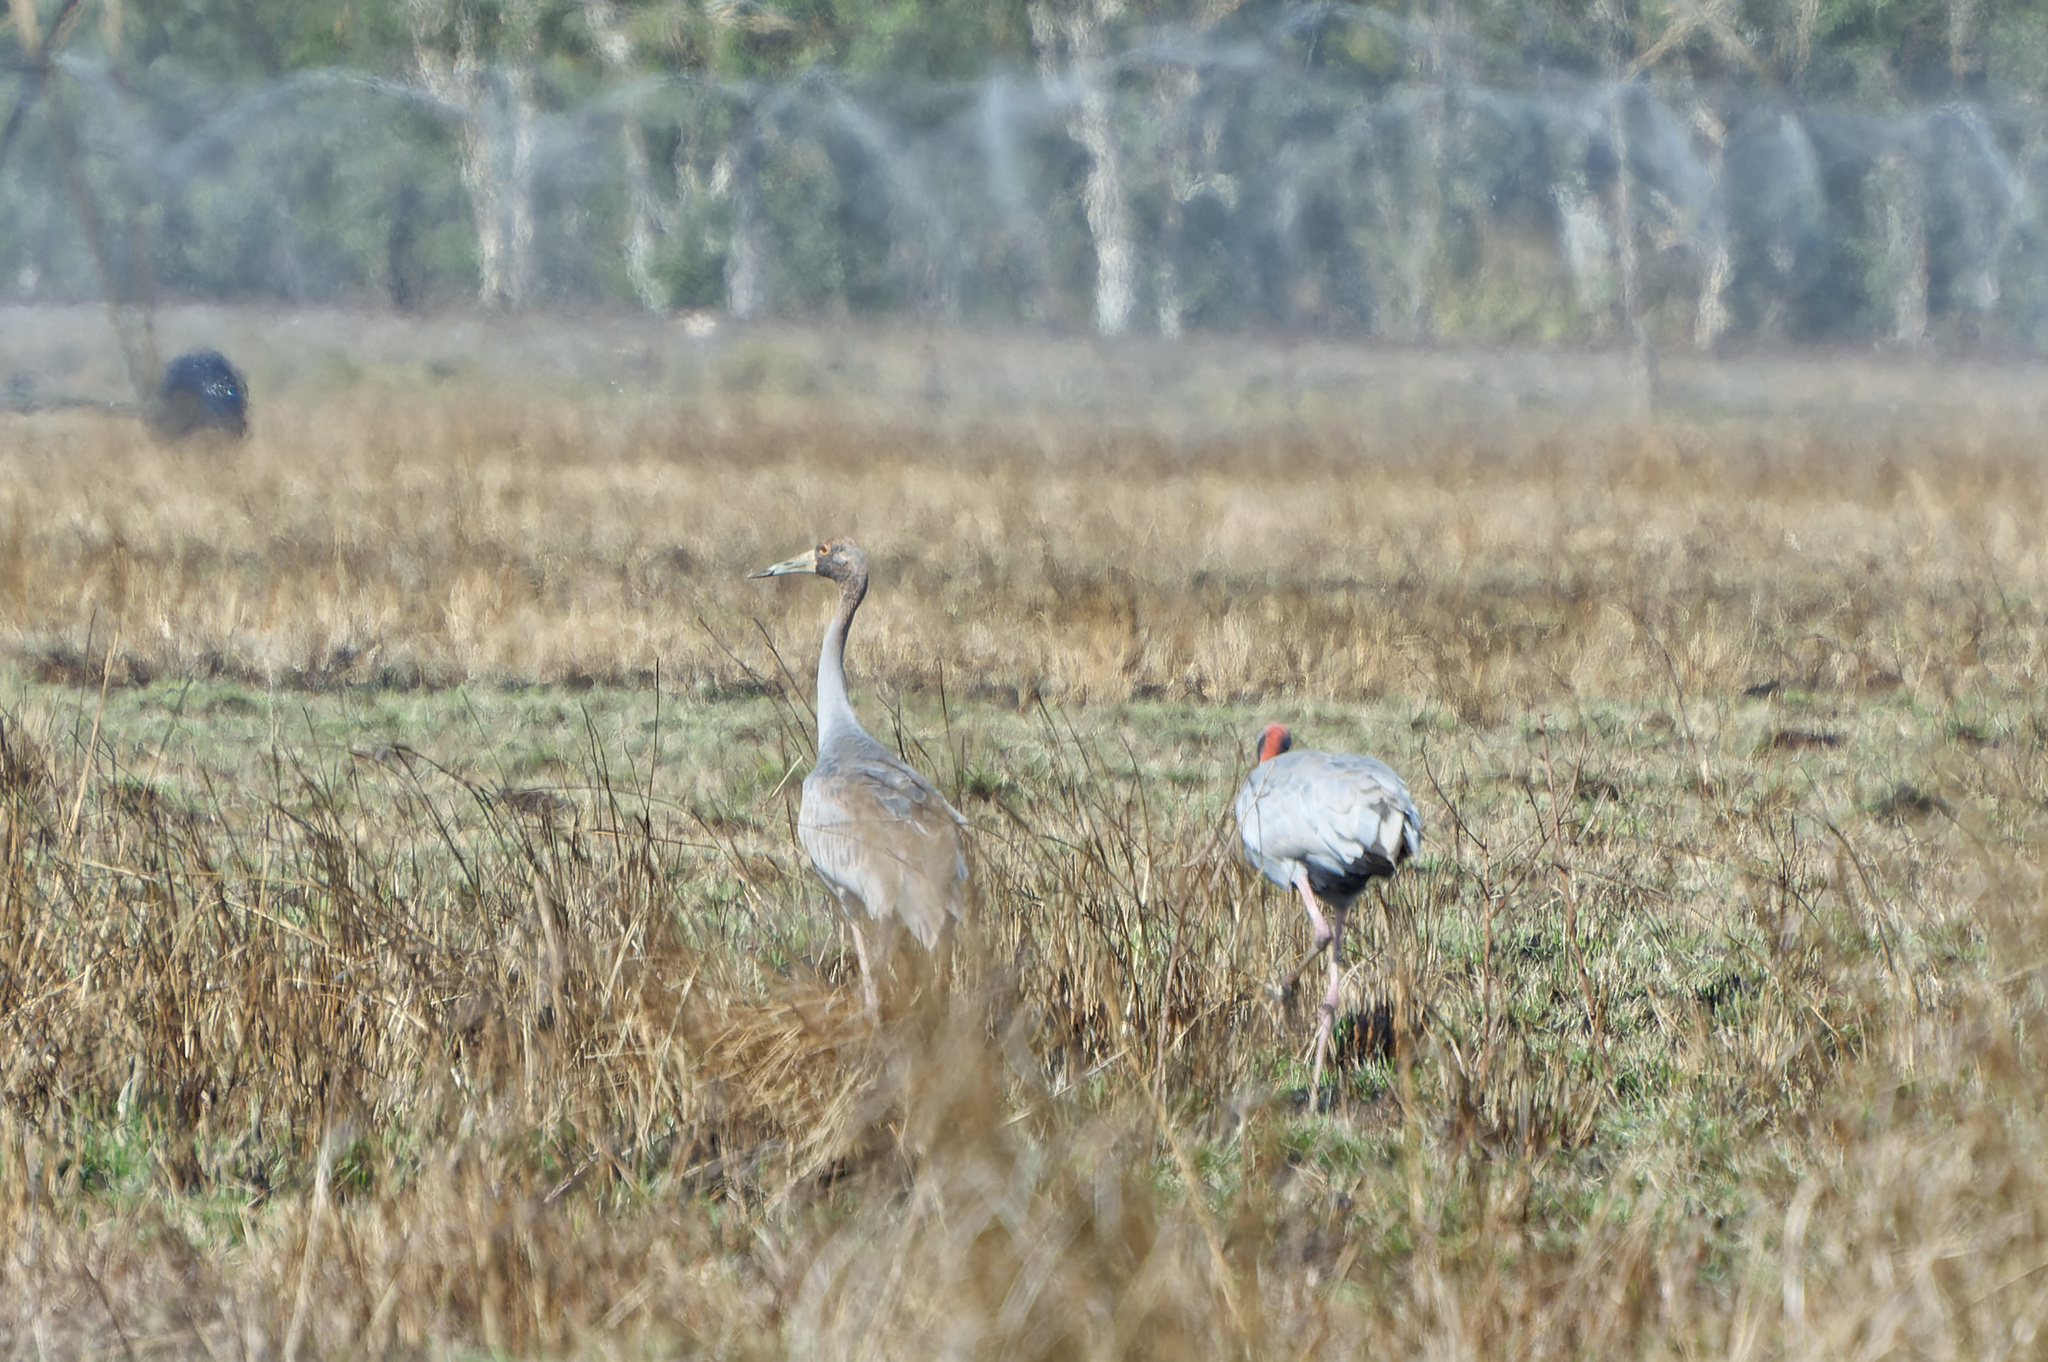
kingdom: Animalia
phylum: Chordata
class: Aves
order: Gruiformes
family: Gruidae
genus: Grus
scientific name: Grus antigone
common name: Sarus crane
